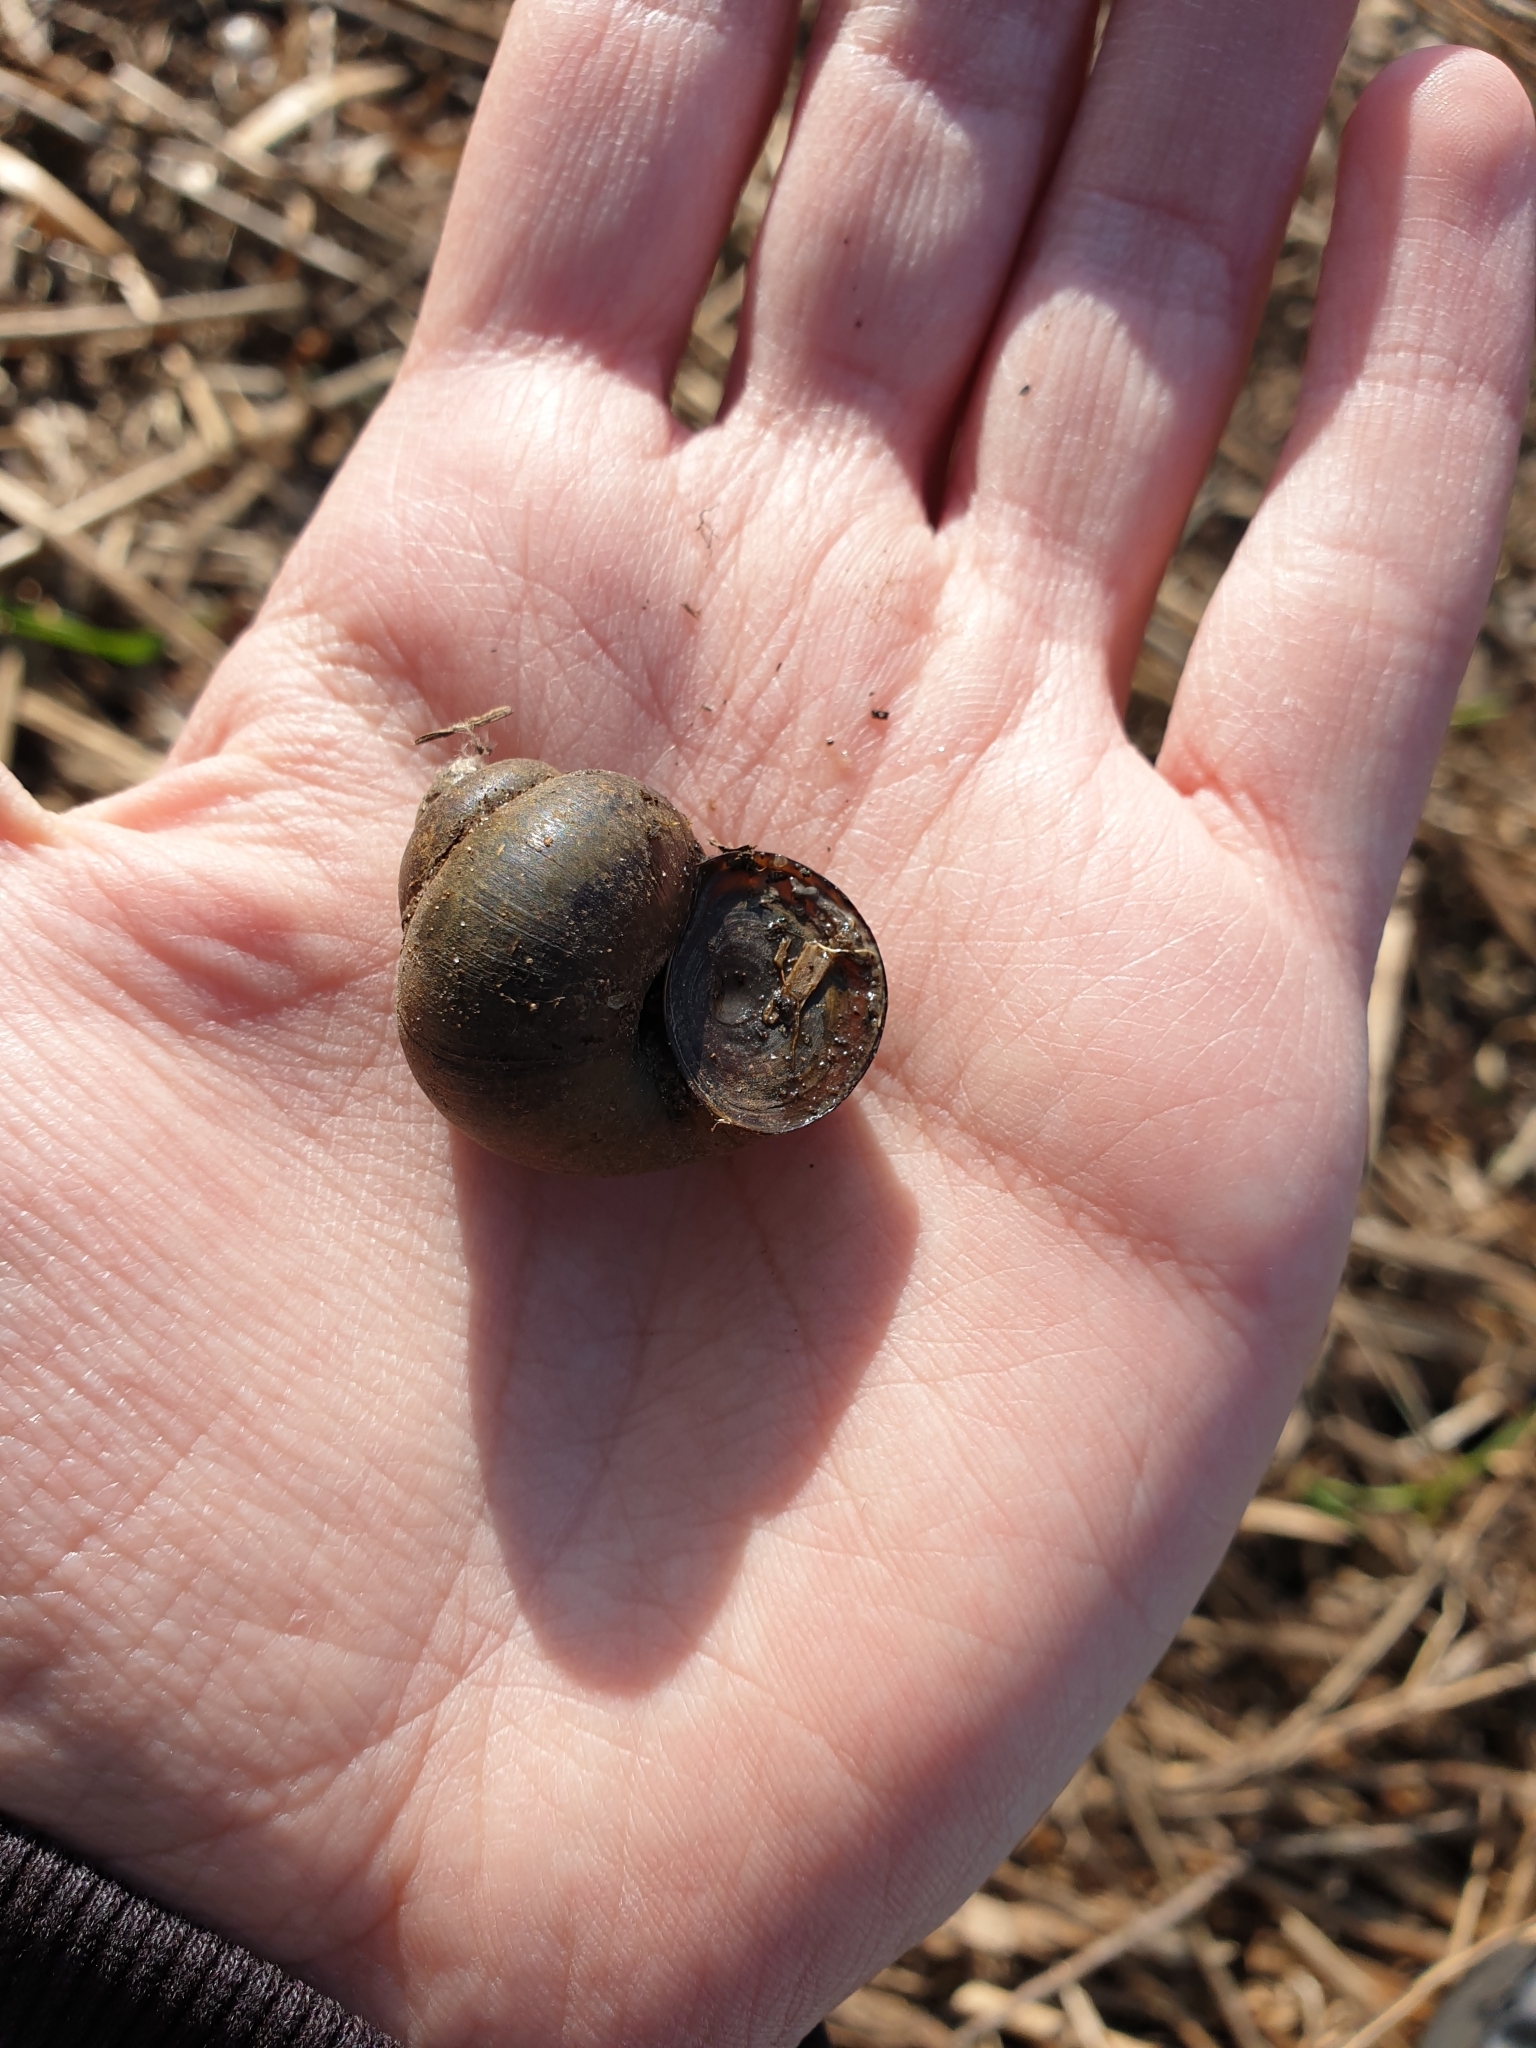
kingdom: Animalia
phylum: Mollusca
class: Gastropoda
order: Architaenioglossa
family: Viviparidae
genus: Viviparus
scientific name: Viviparus contectus
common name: Lister's river snail
